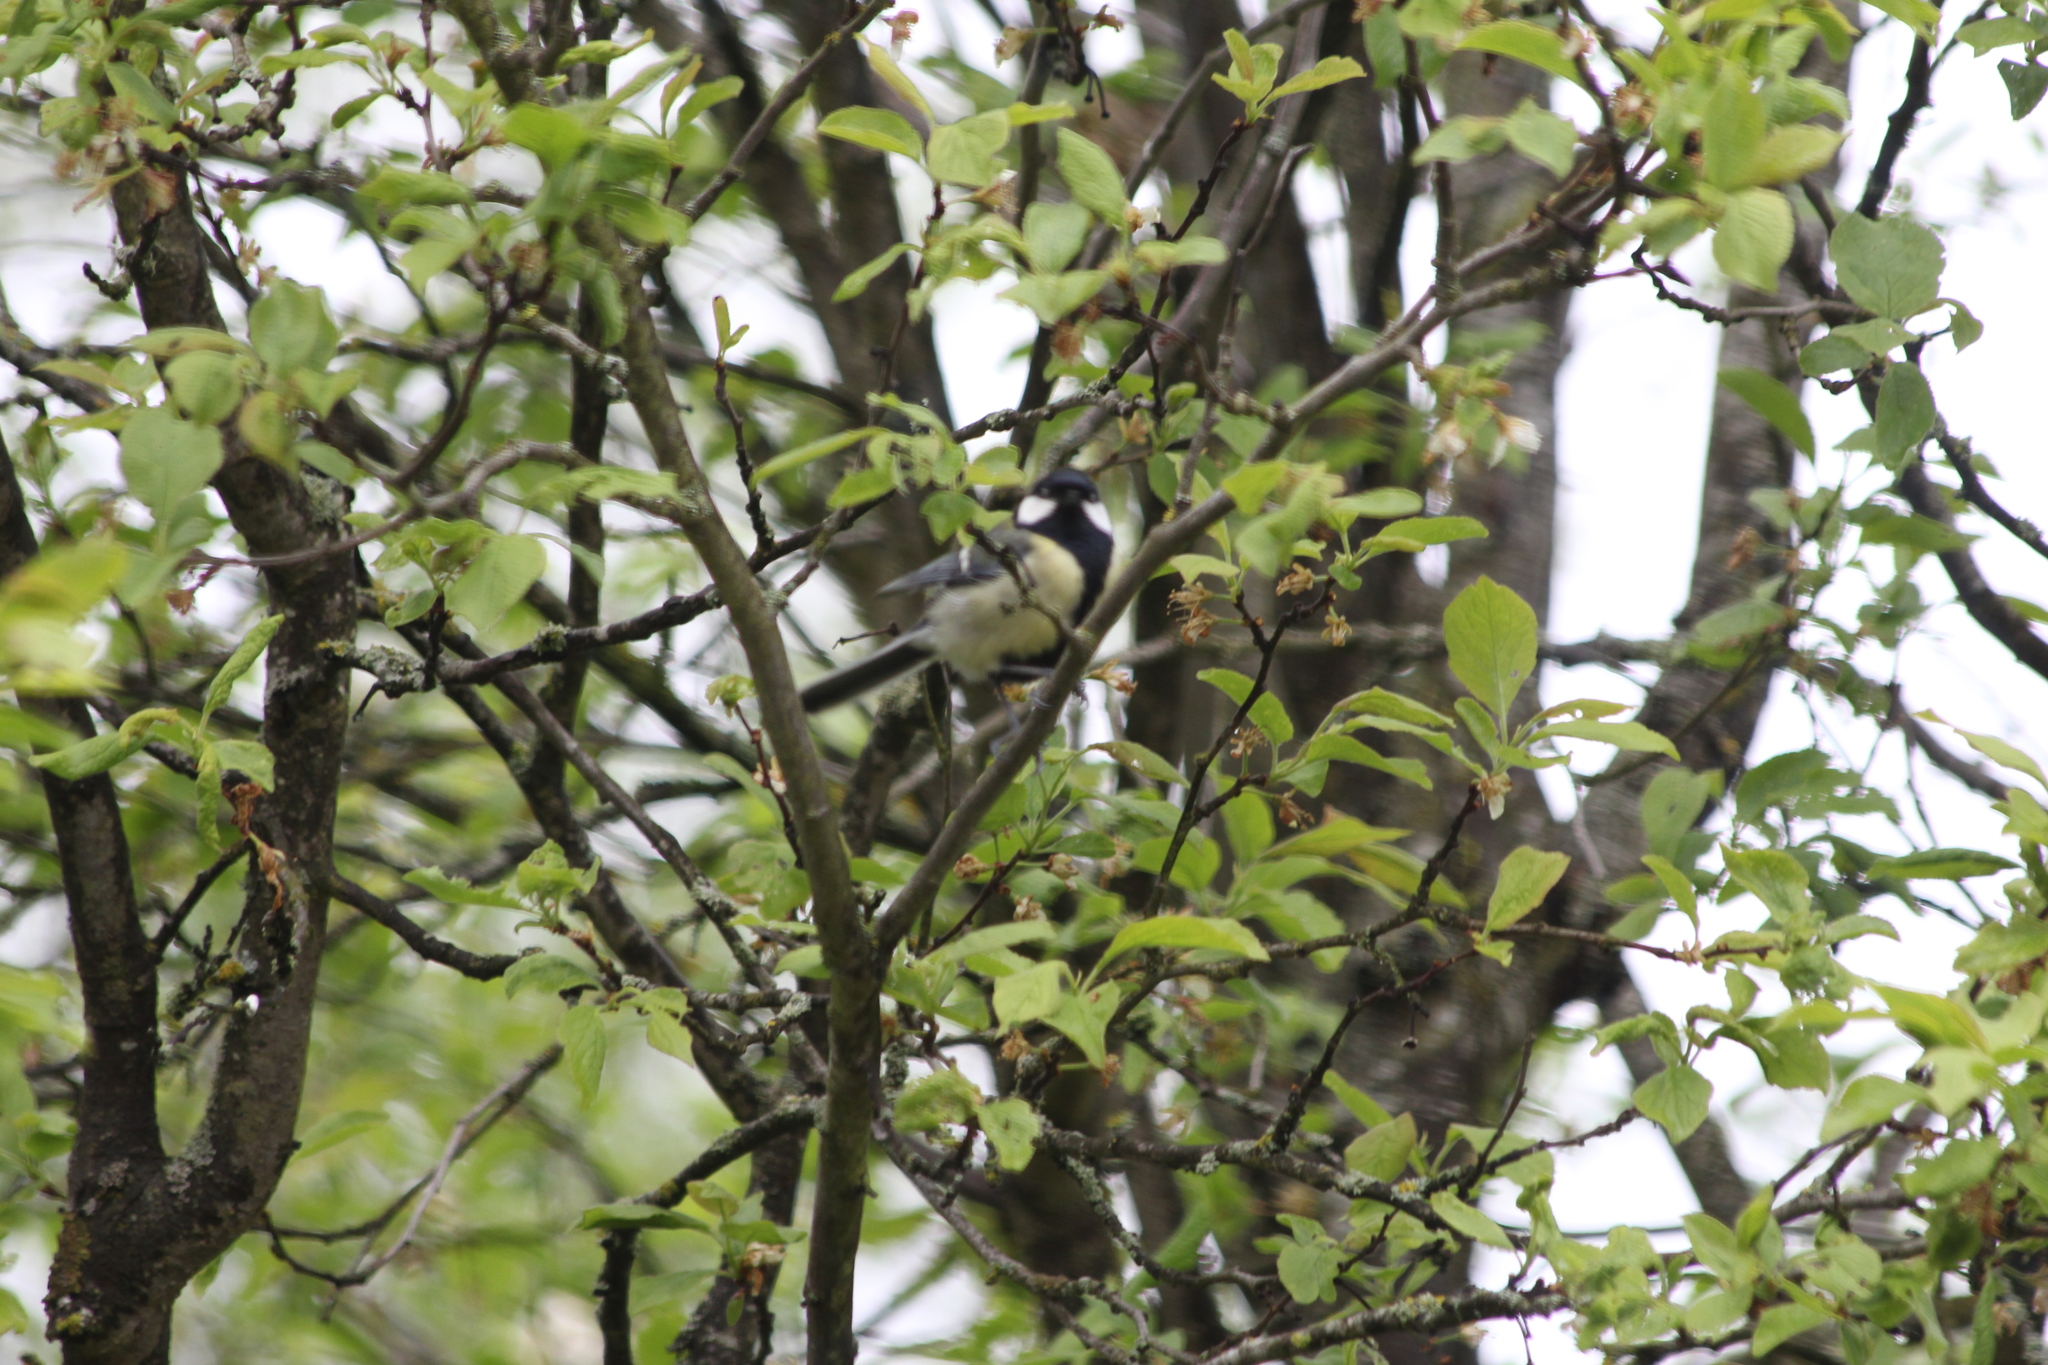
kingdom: Animalia
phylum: Chordata
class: Aves
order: Passeriformes
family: Paridae
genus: Parus
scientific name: Parus major
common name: Great tit
